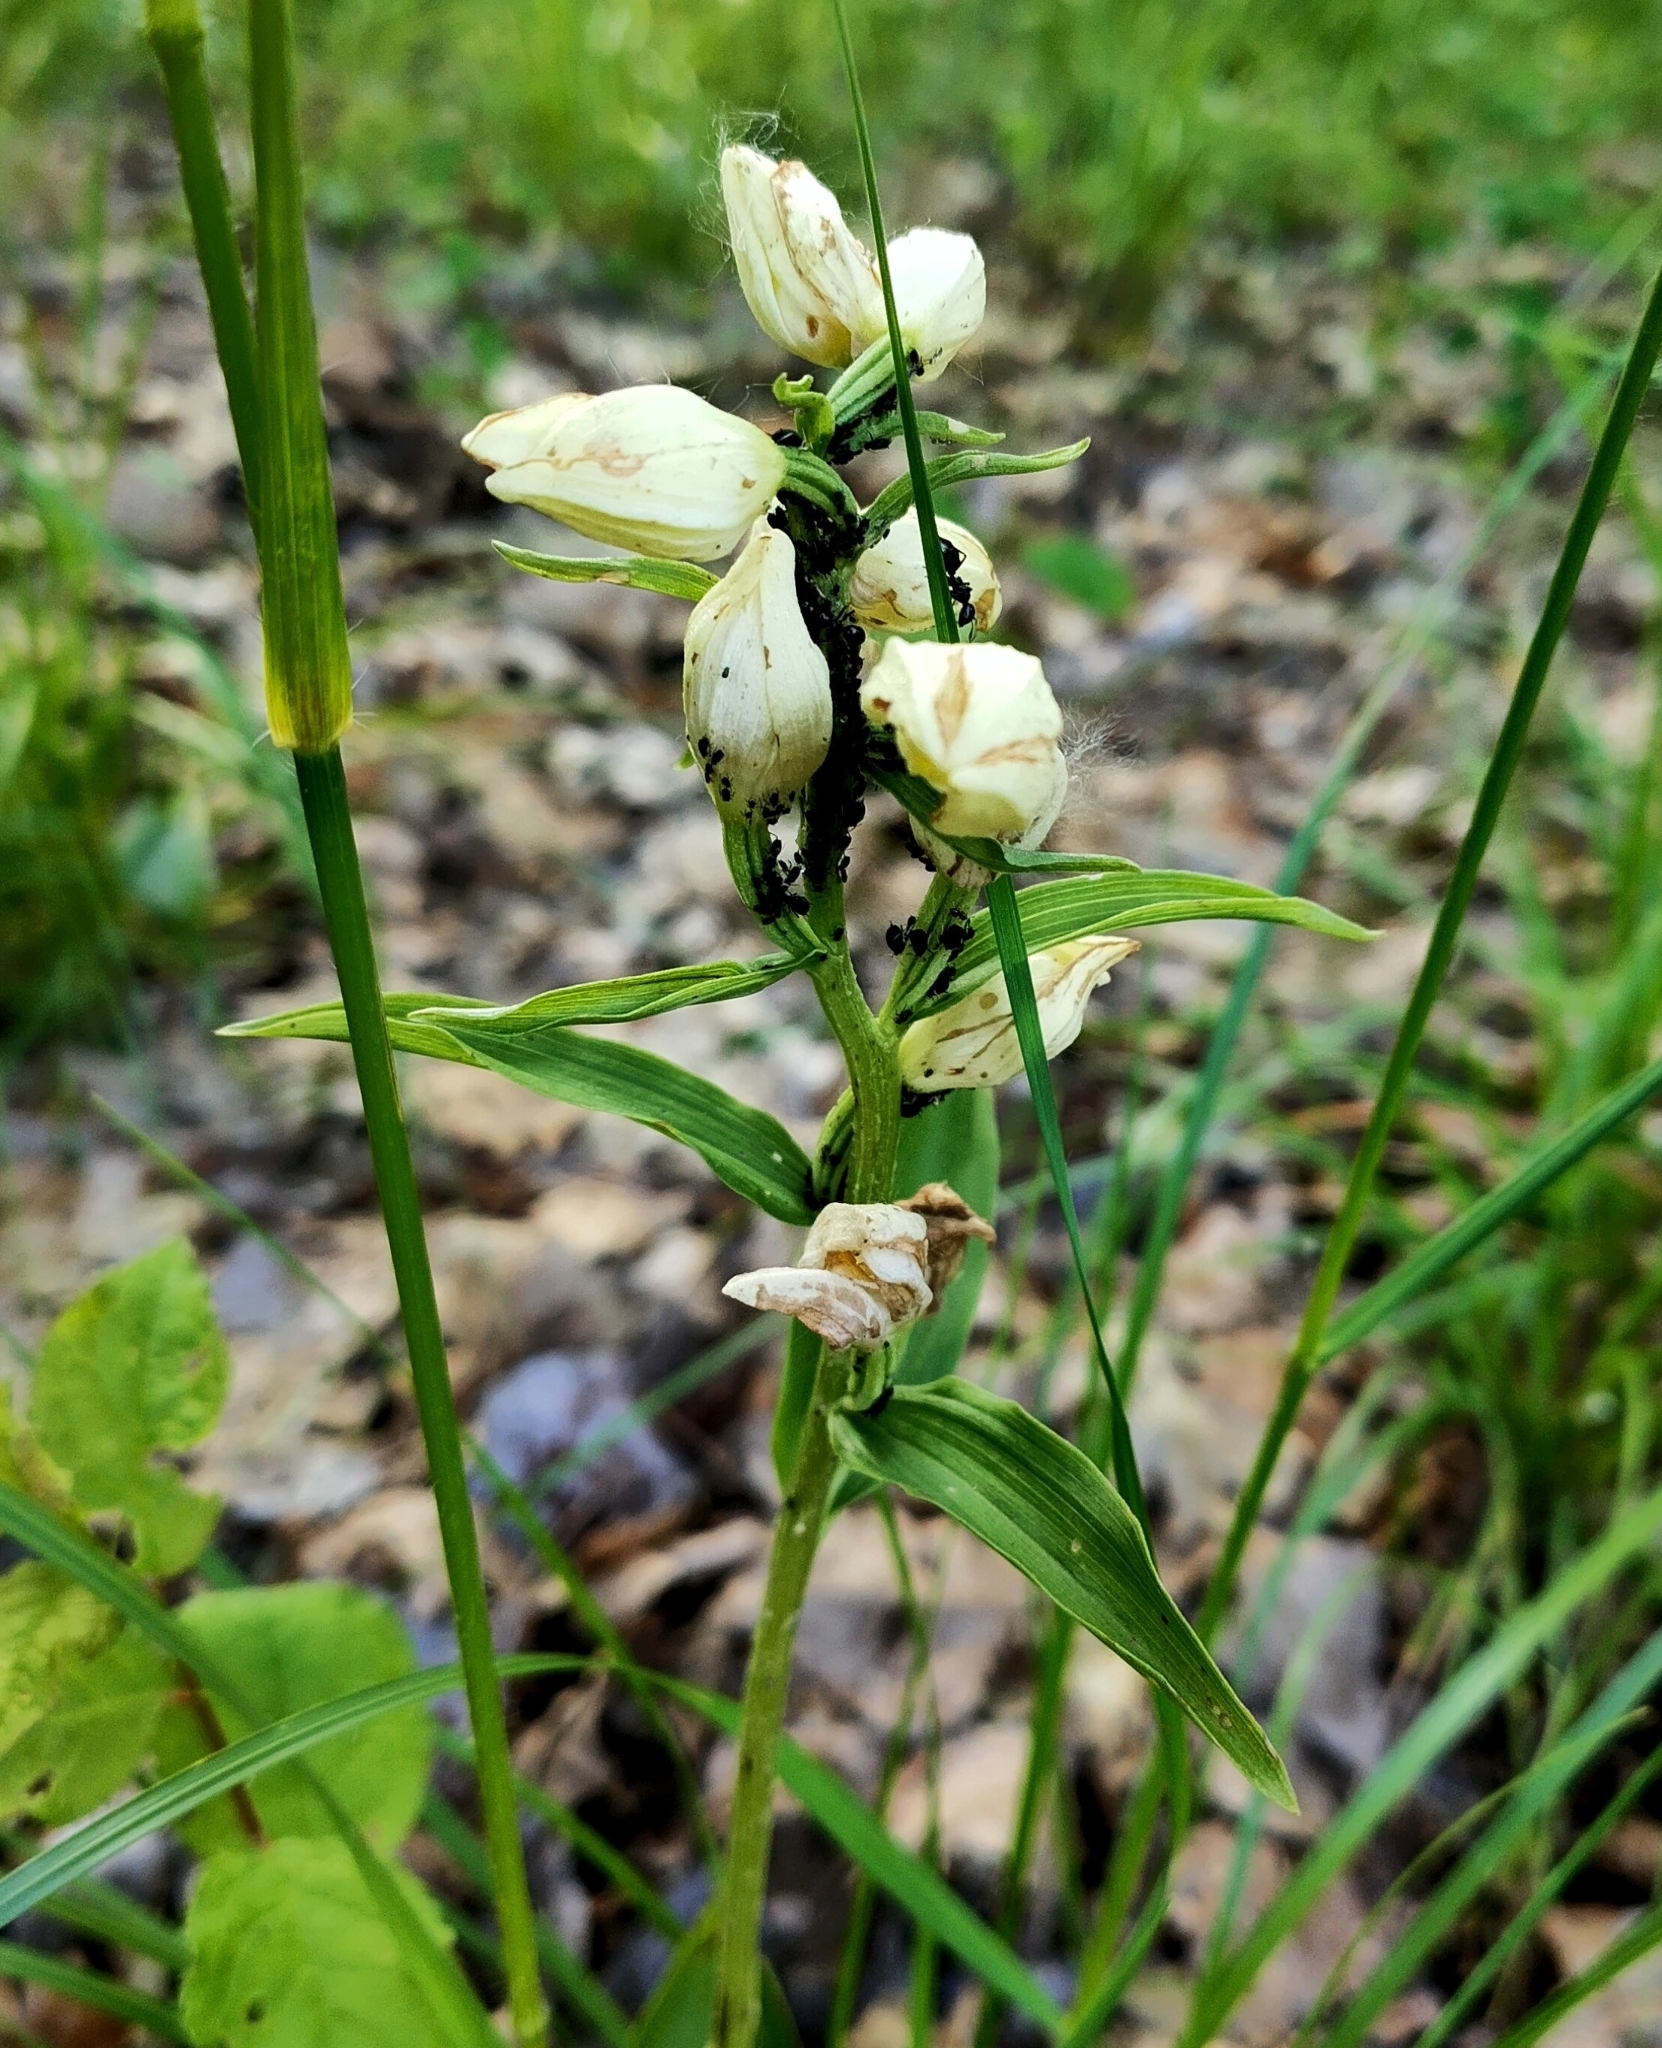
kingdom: Plantae
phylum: Tracheophyta
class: Liliopsida
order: Asparagales
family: Orchidaceae
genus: Cephalanthera
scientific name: Cephalanthera damasonium
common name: White helleborine
